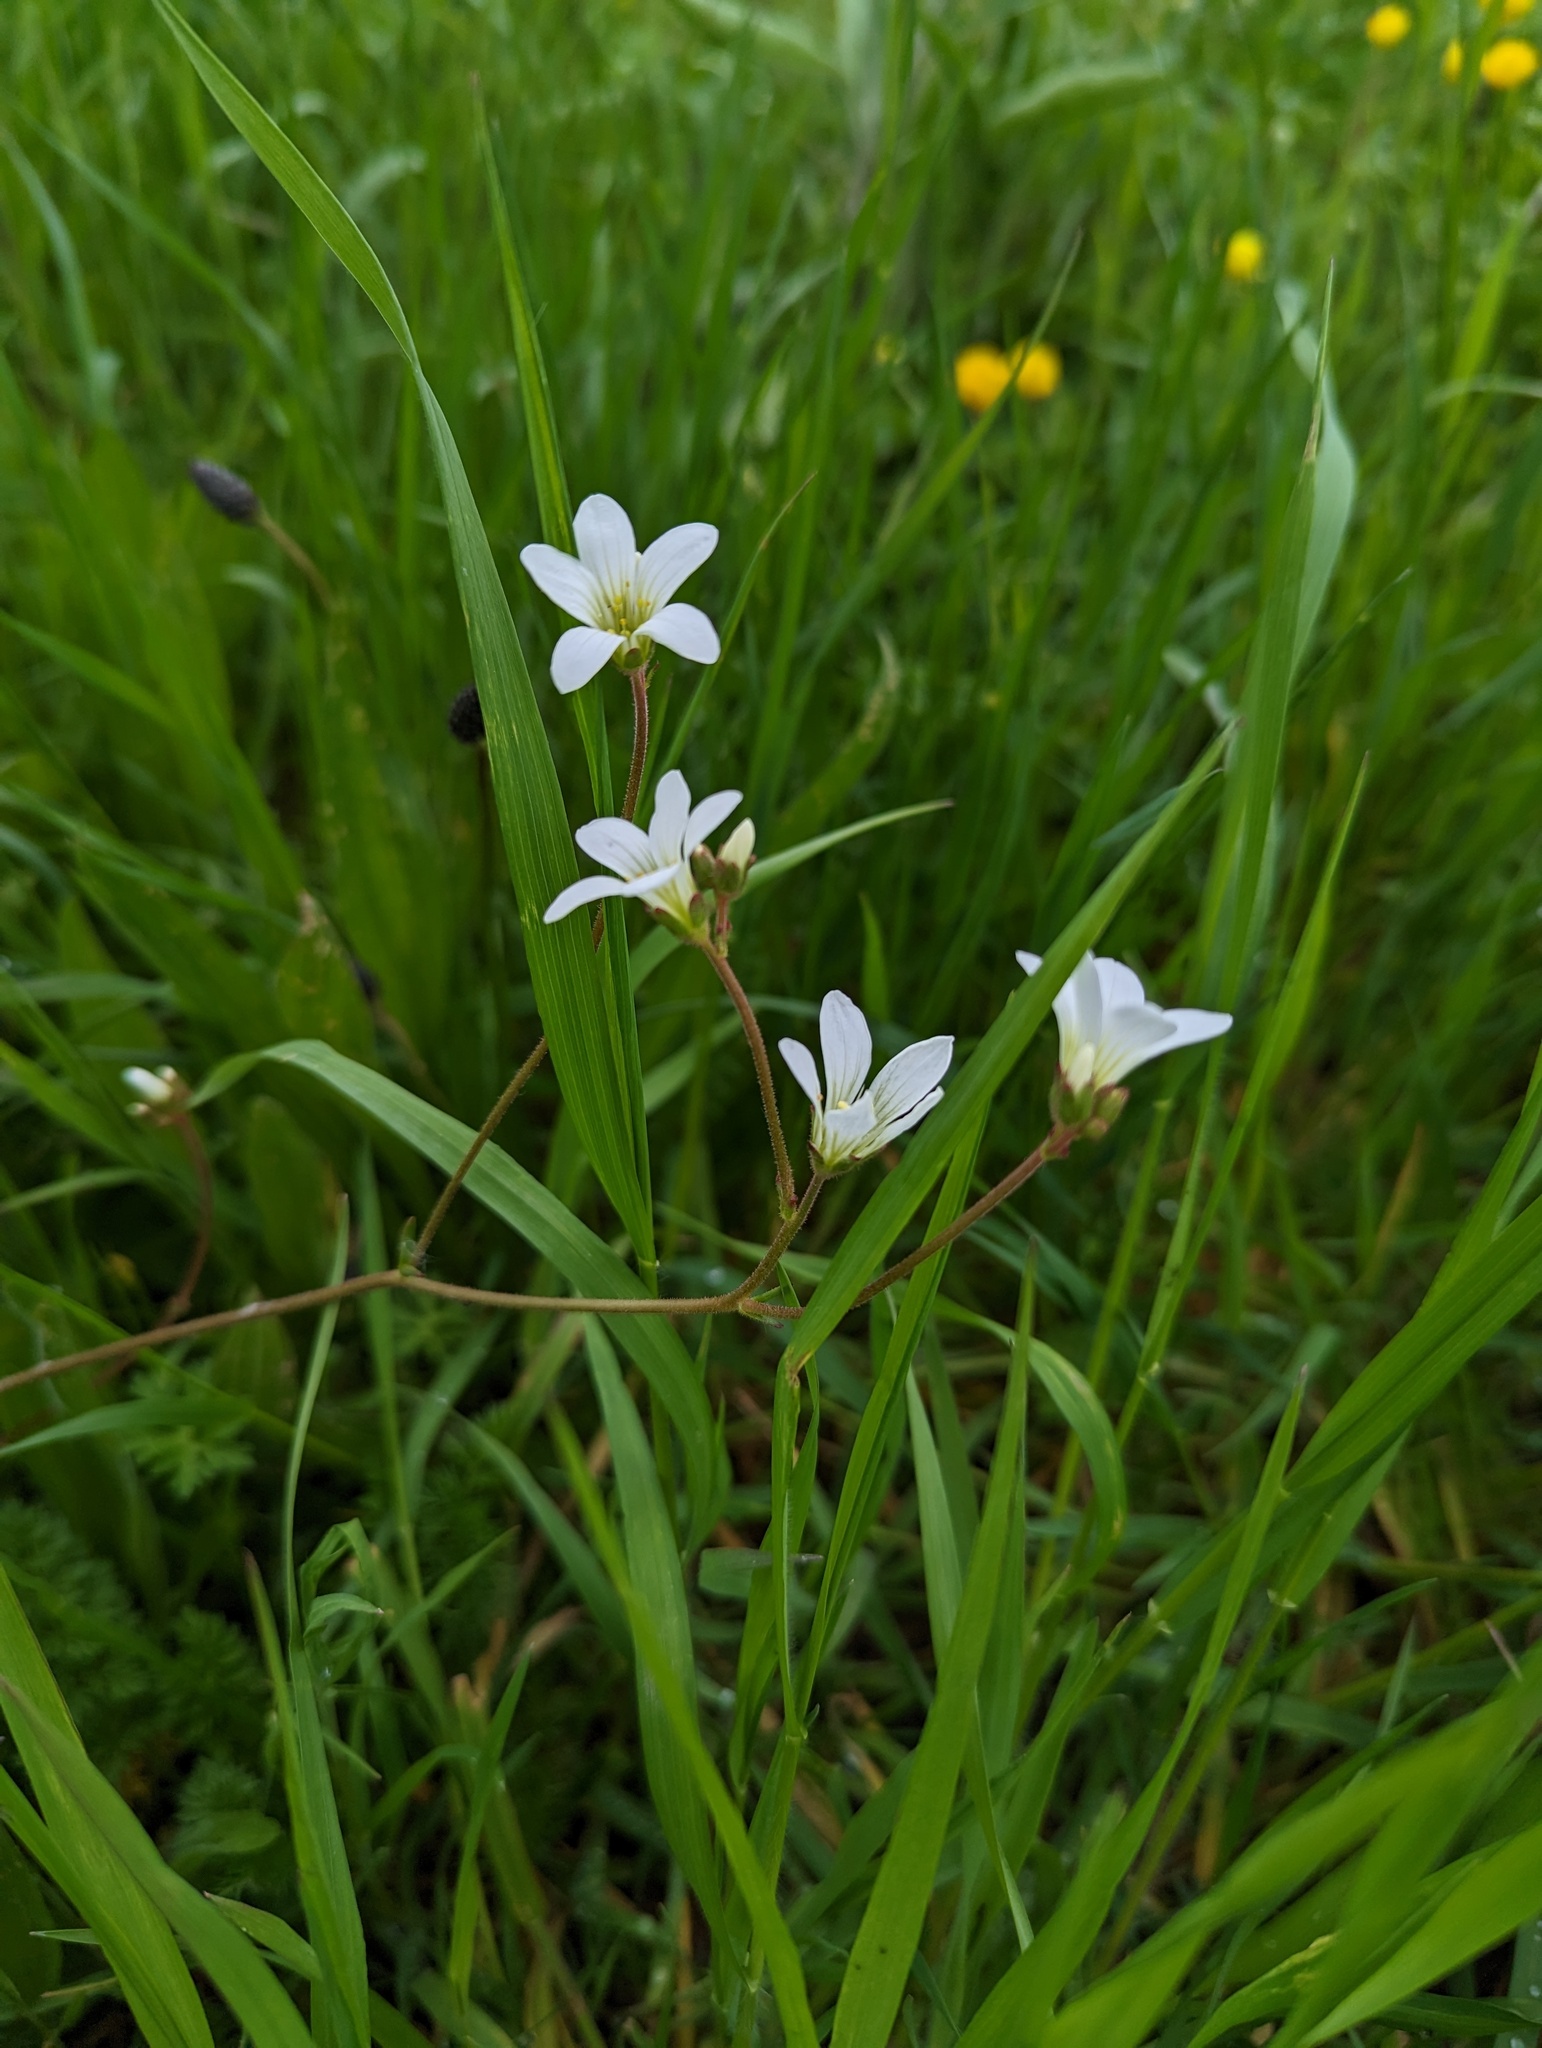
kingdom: Plantae
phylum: Tracheophyta
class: Magnoliopsida
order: Saxifragales
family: Saxifragaceae
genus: Saxifraga
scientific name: Saxifraga granulata
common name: Meadow saxifrage
